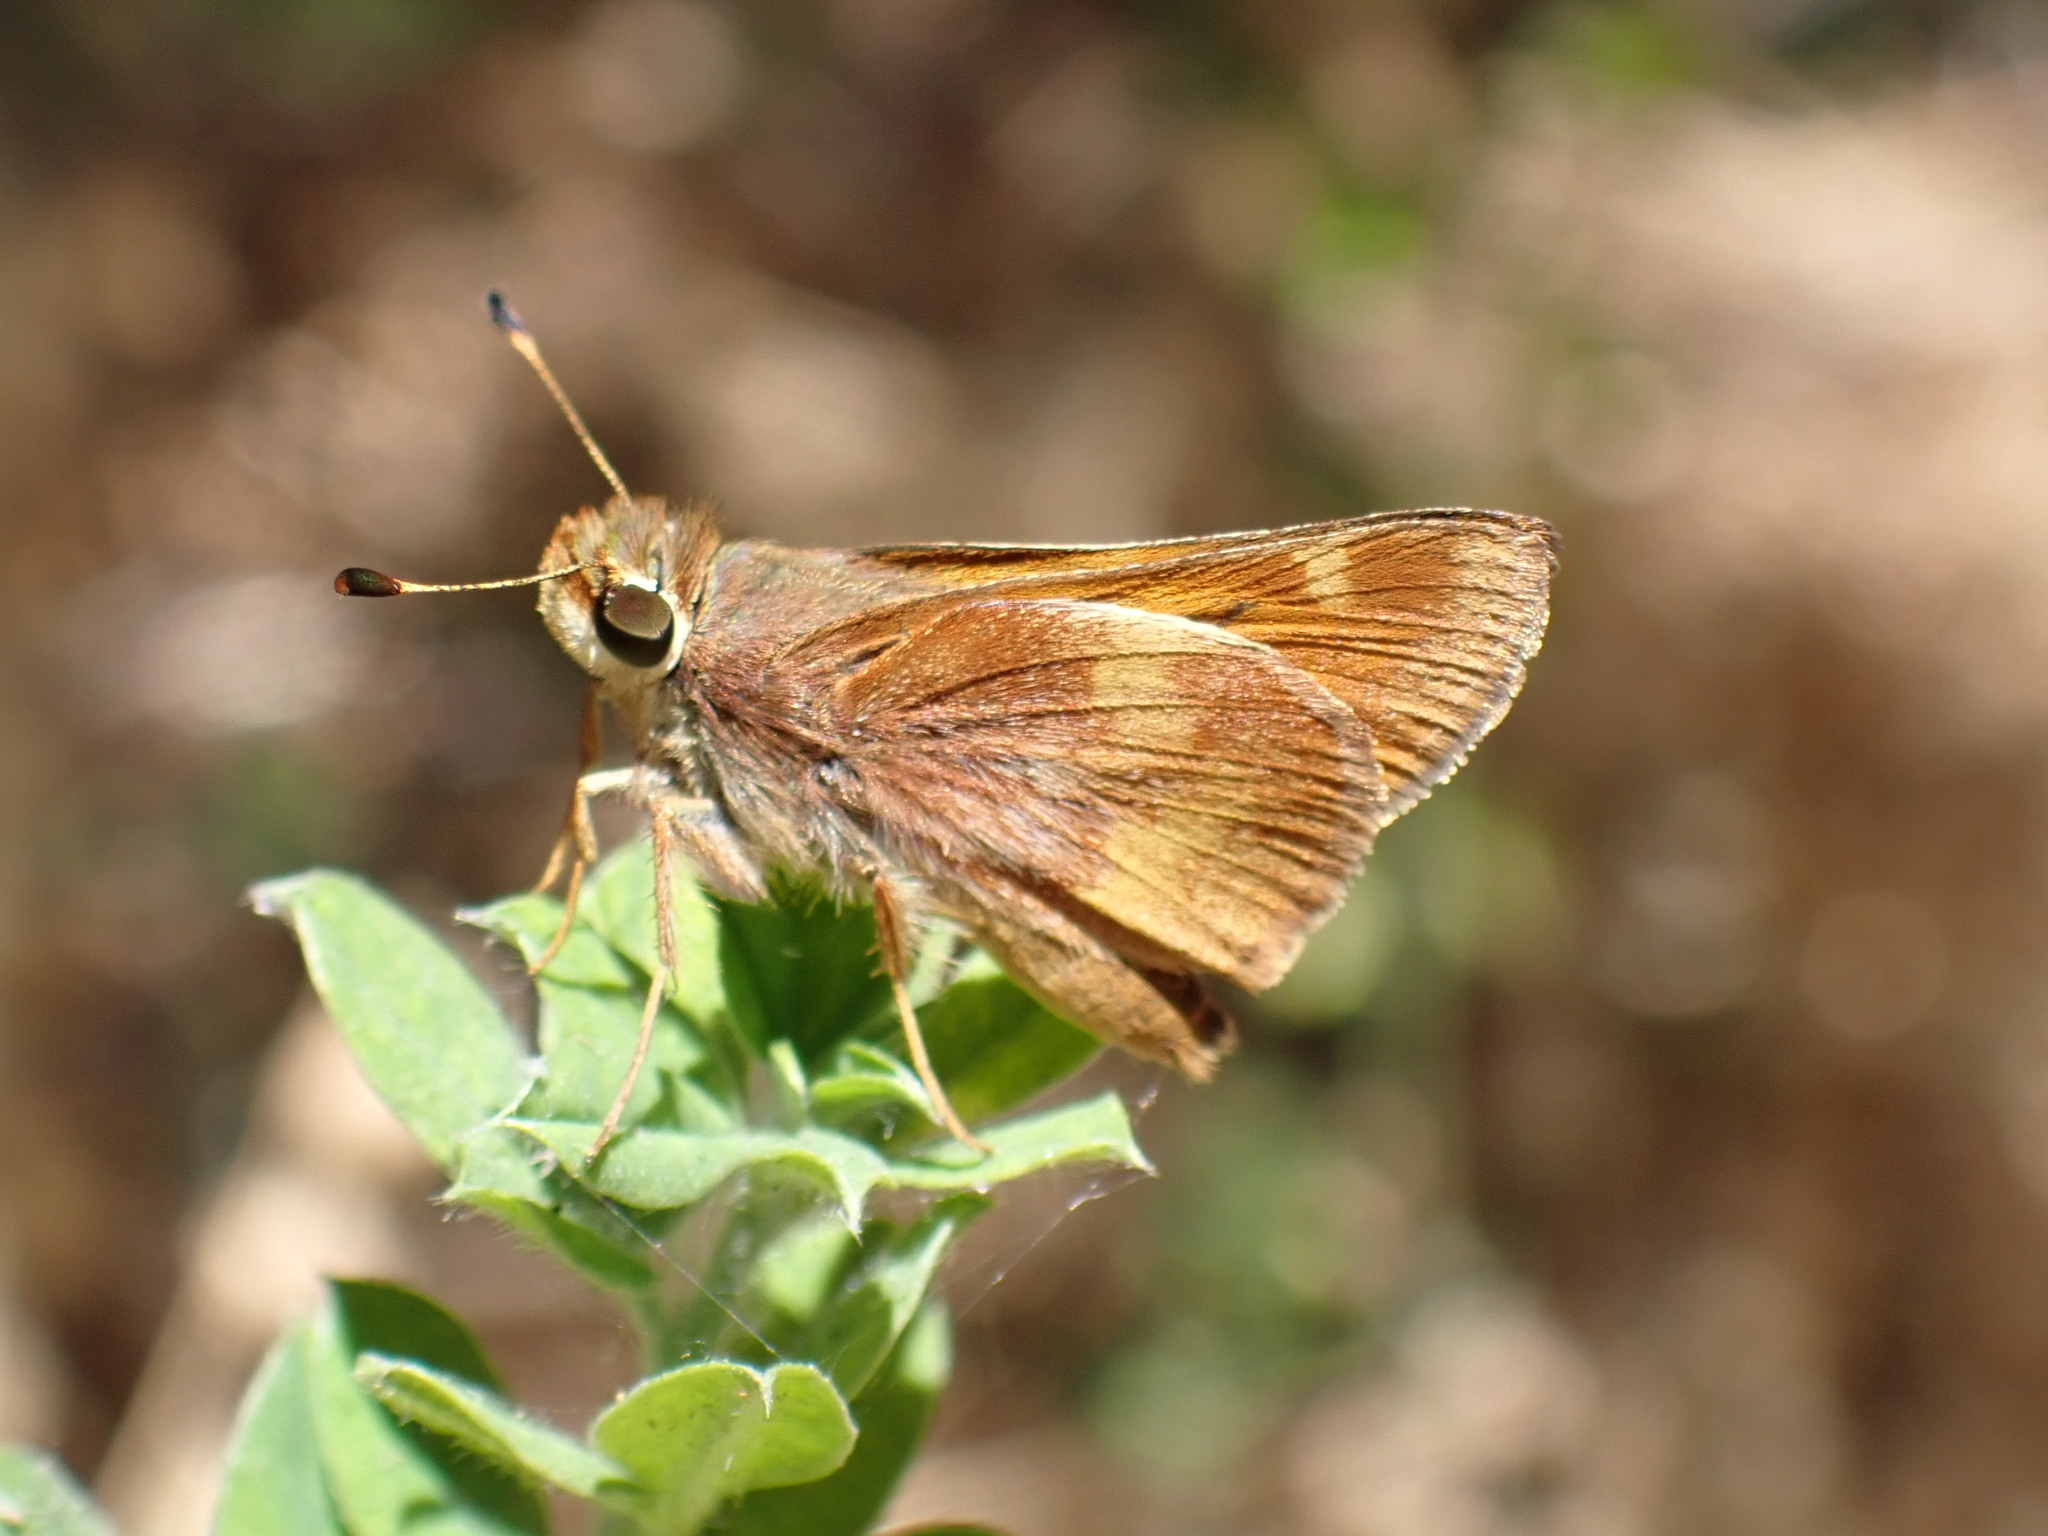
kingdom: Animalia
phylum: Arthropoda
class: Insecta
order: Lepidoptera
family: Hesperiidae
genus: Lon
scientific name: Lon melane
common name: Umber skipper
